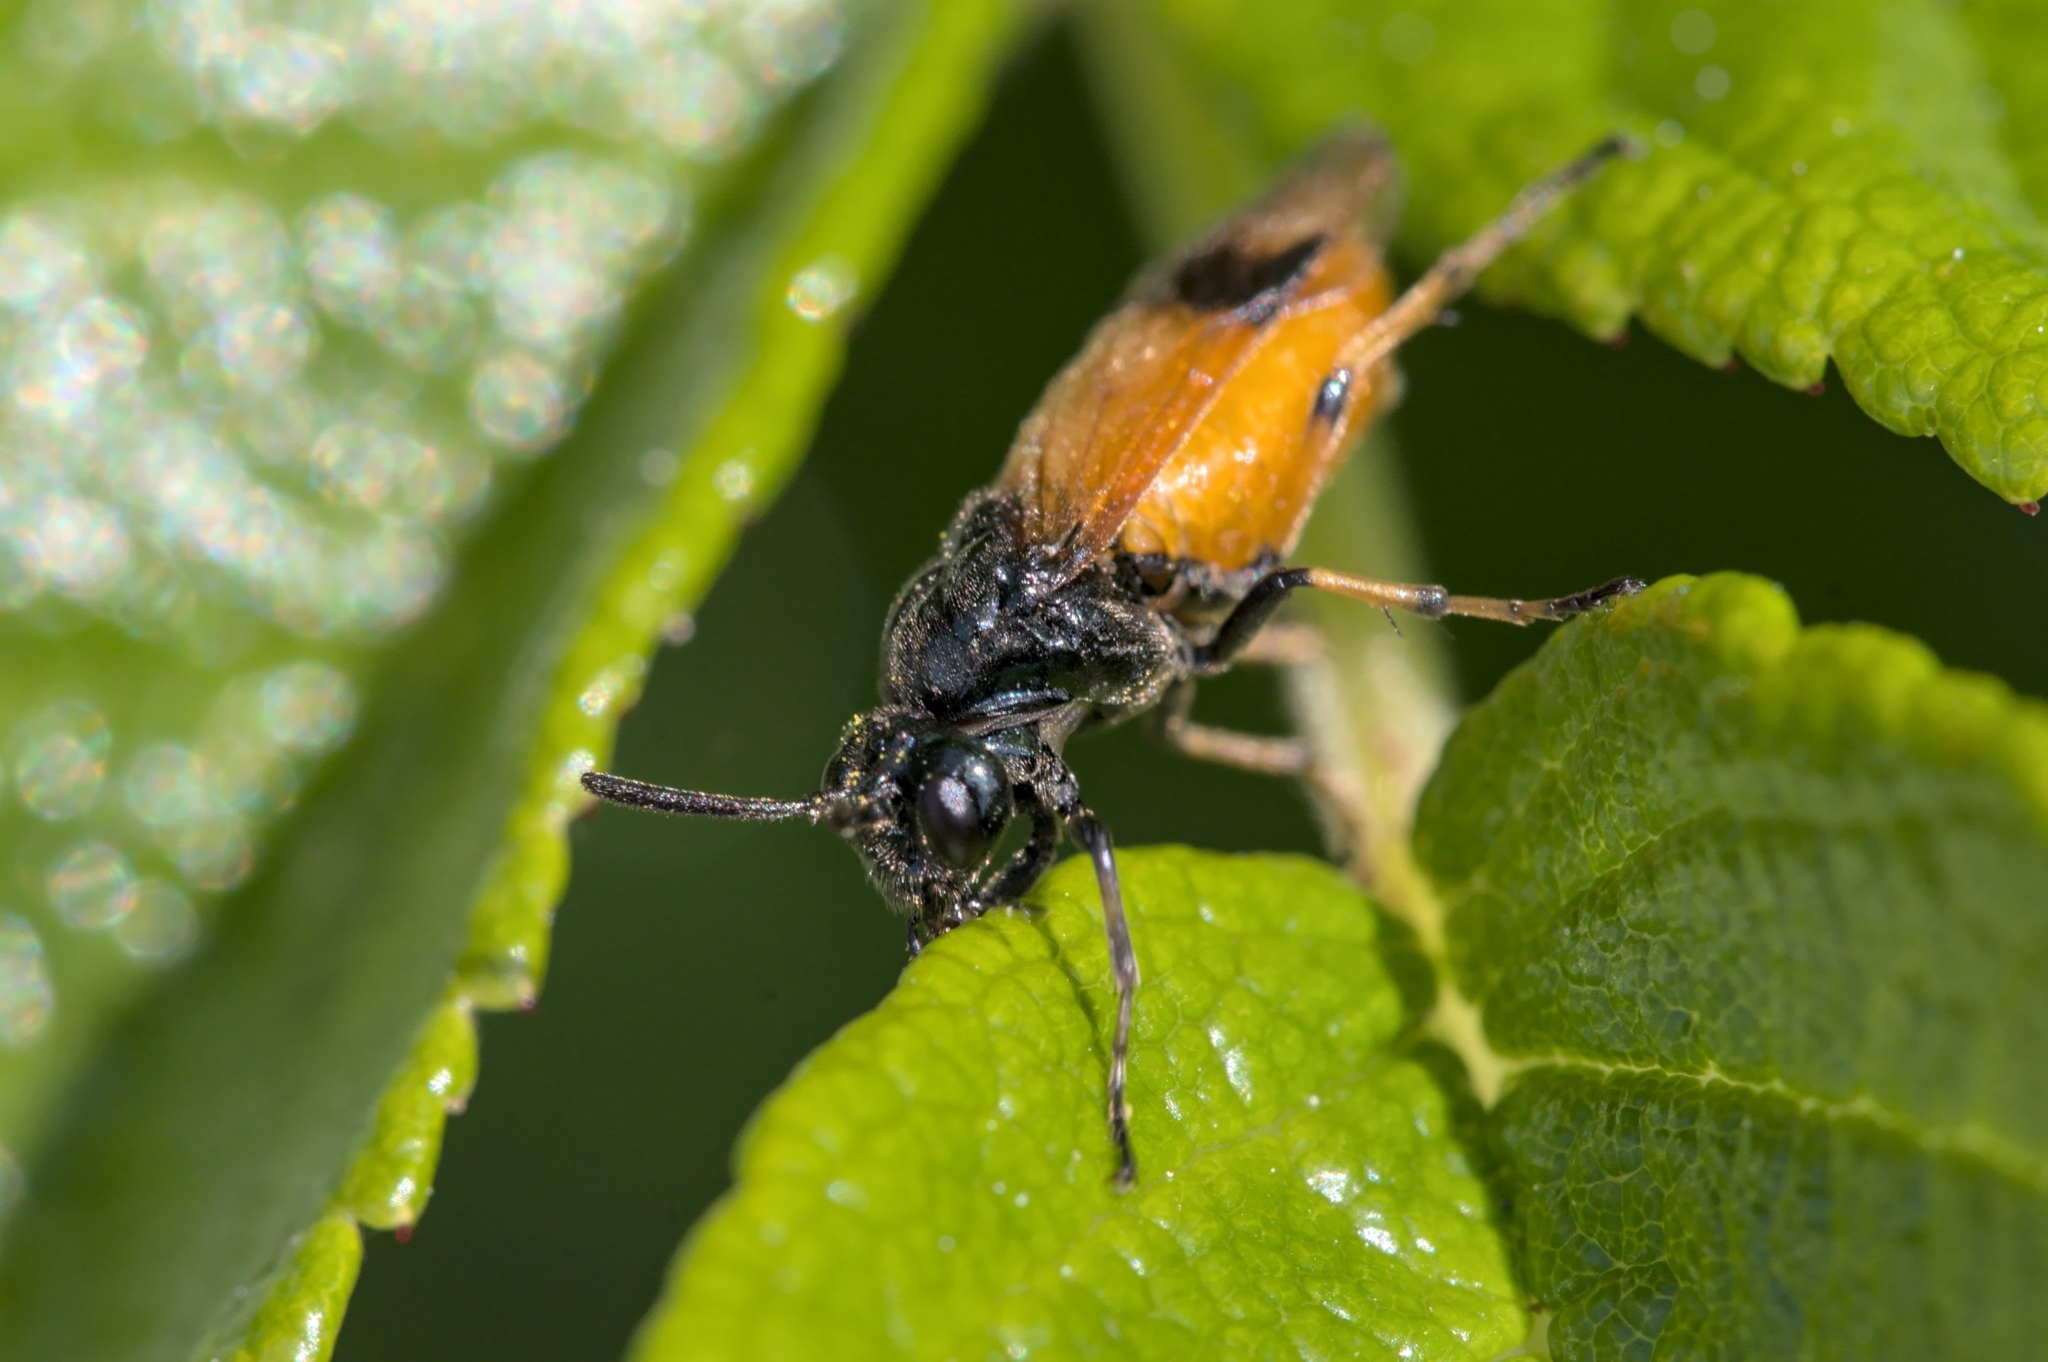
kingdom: Animalia
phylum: Arthropoda
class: Insecta
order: Hymenoptera
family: Argidae
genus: Arge
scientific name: Arge cyanocrocea
